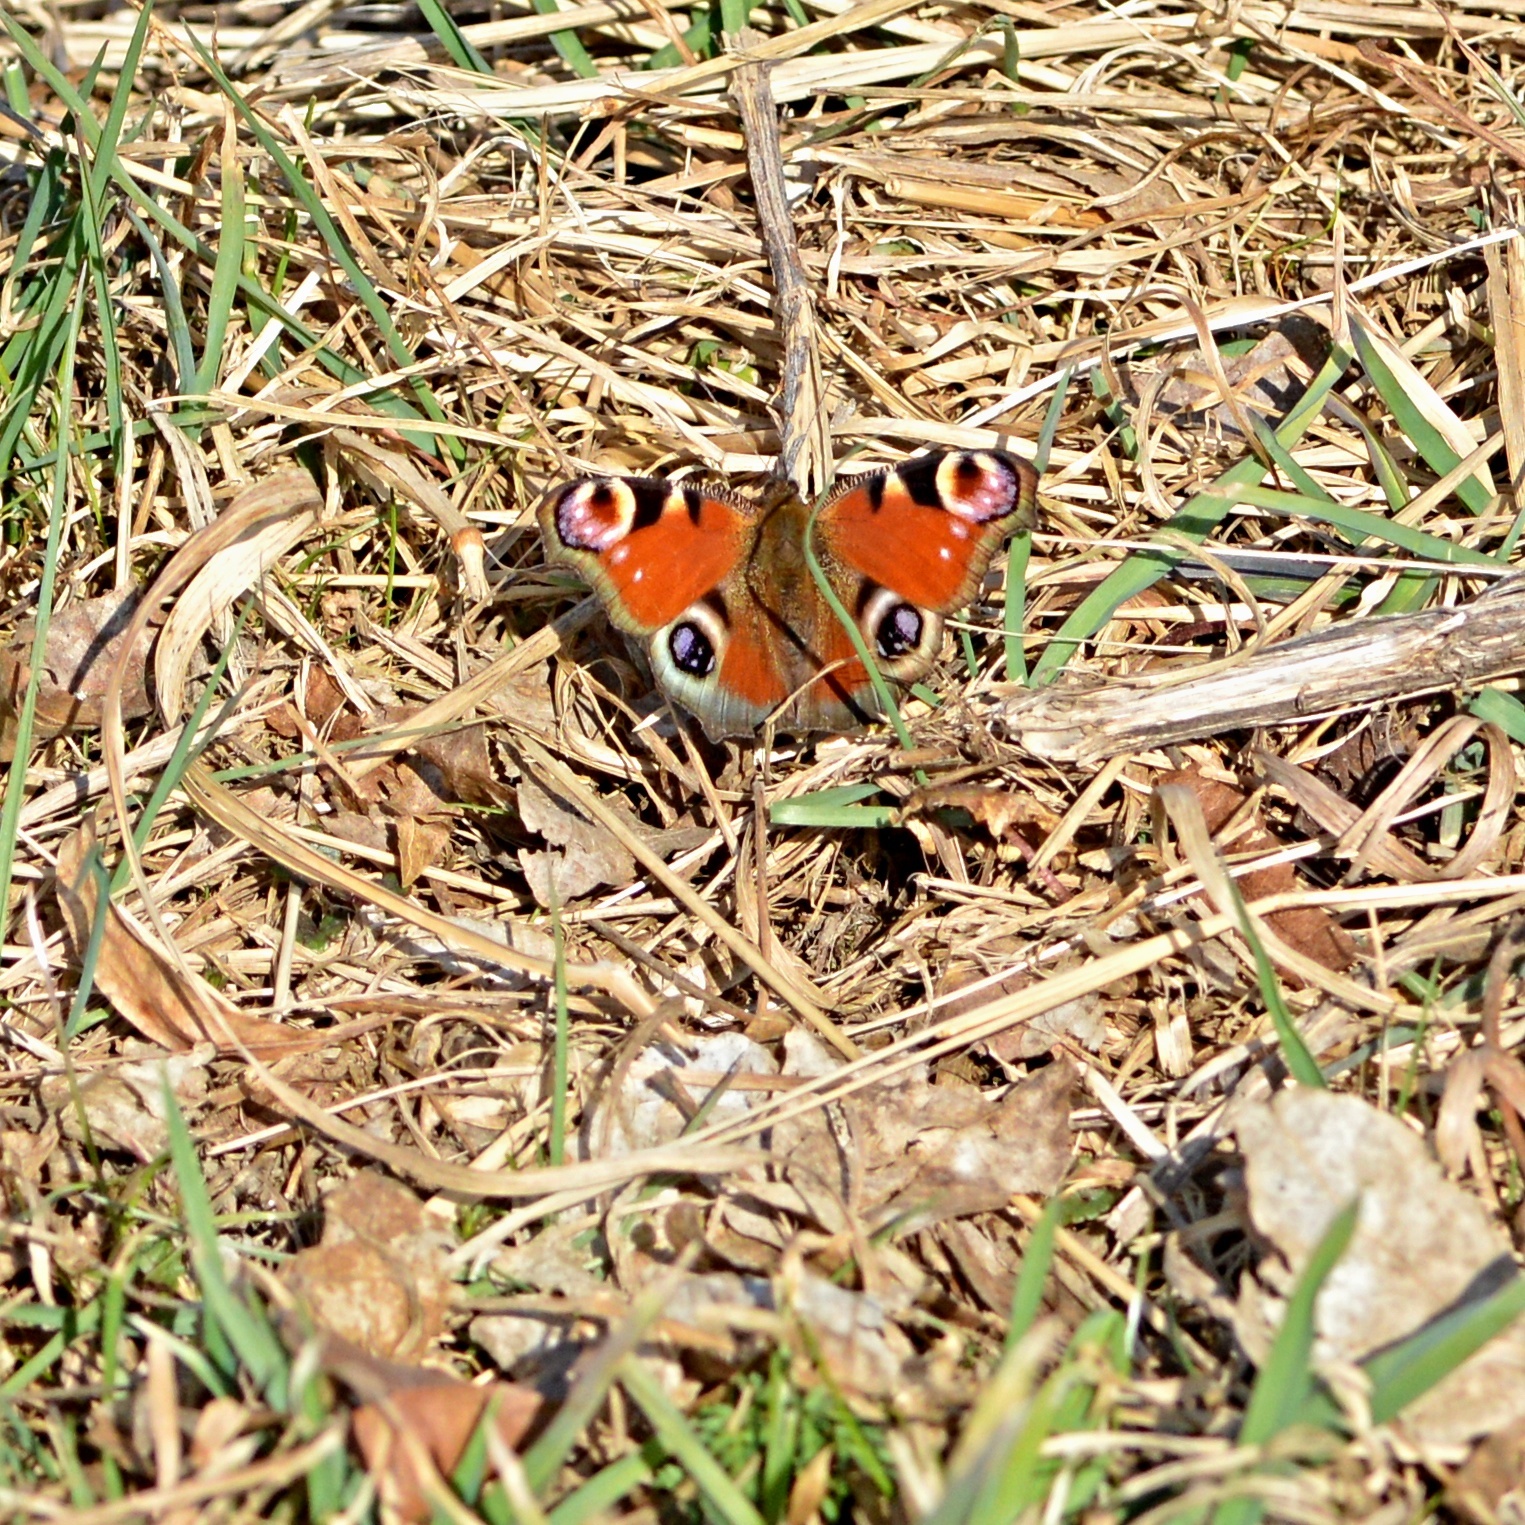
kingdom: Animalia
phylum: Arthropoda
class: Insecta
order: Lepidoptera
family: Nymphalidae
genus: Aglais
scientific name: Aglais io
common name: Peacock
